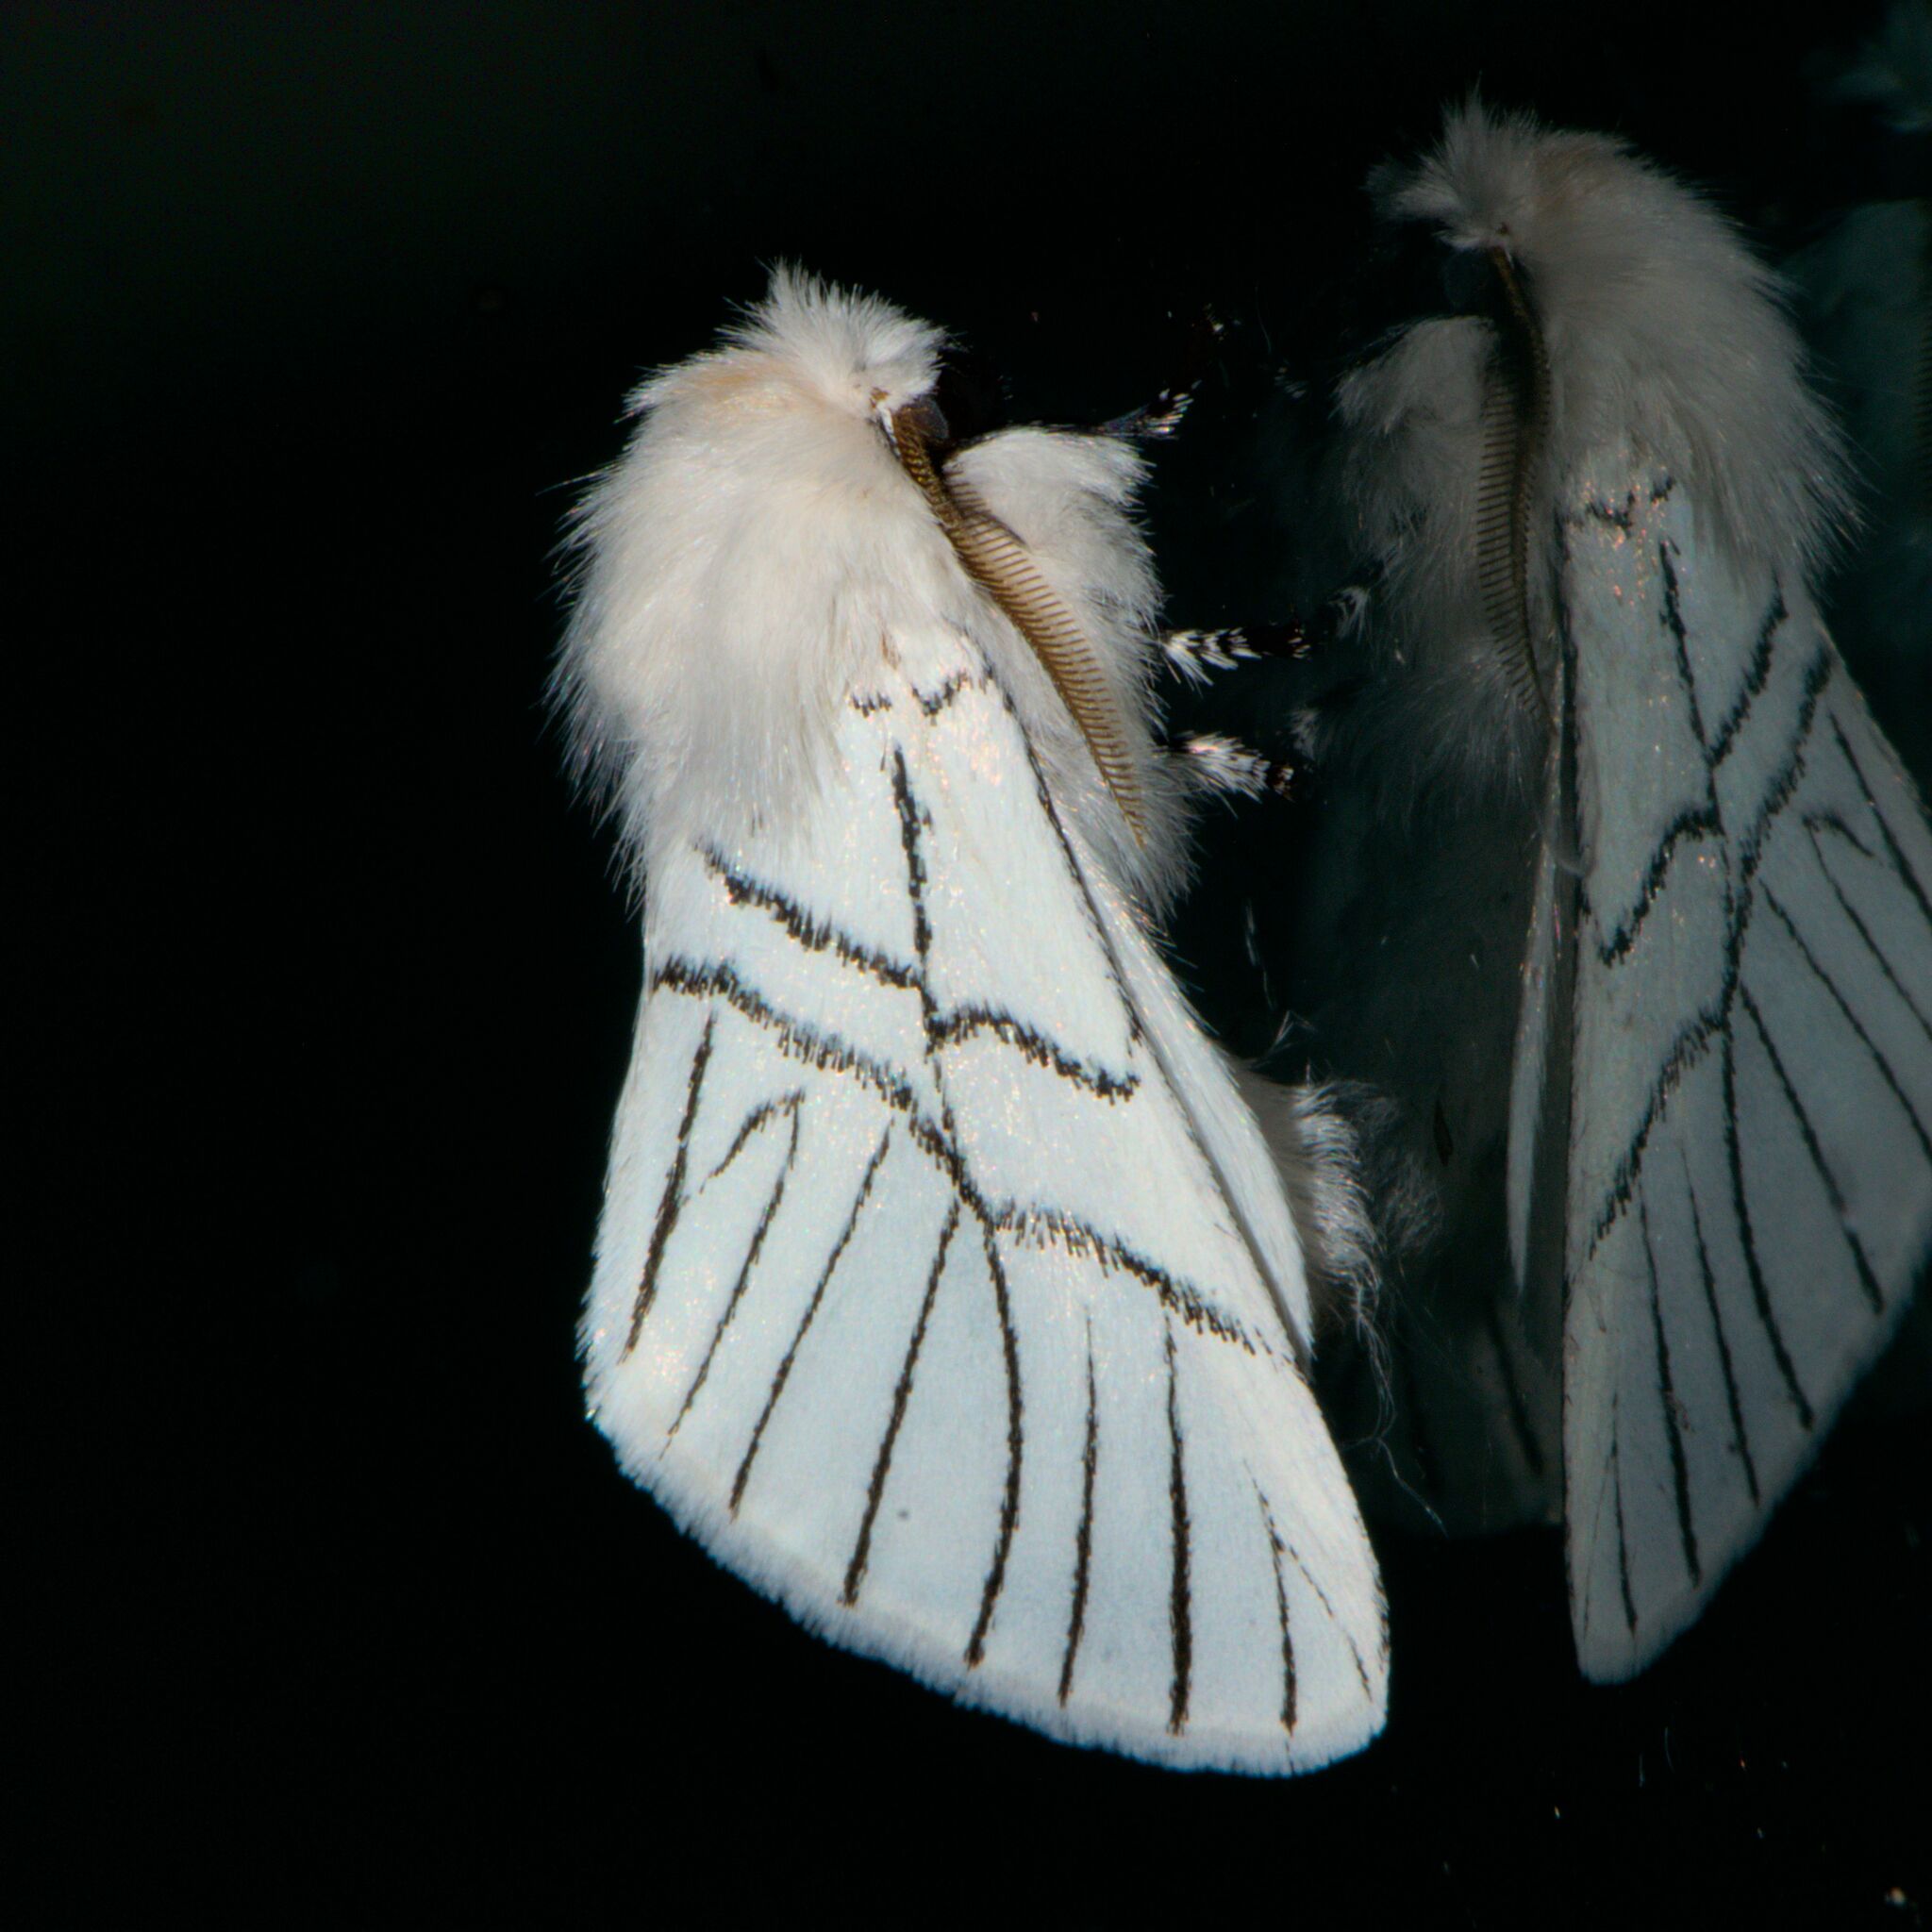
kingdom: Animalia
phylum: Arthropoda
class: Insecta
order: Lepidoptera
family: Notodontidae
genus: Oligoclona
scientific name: Oligoclona chrysolopha
